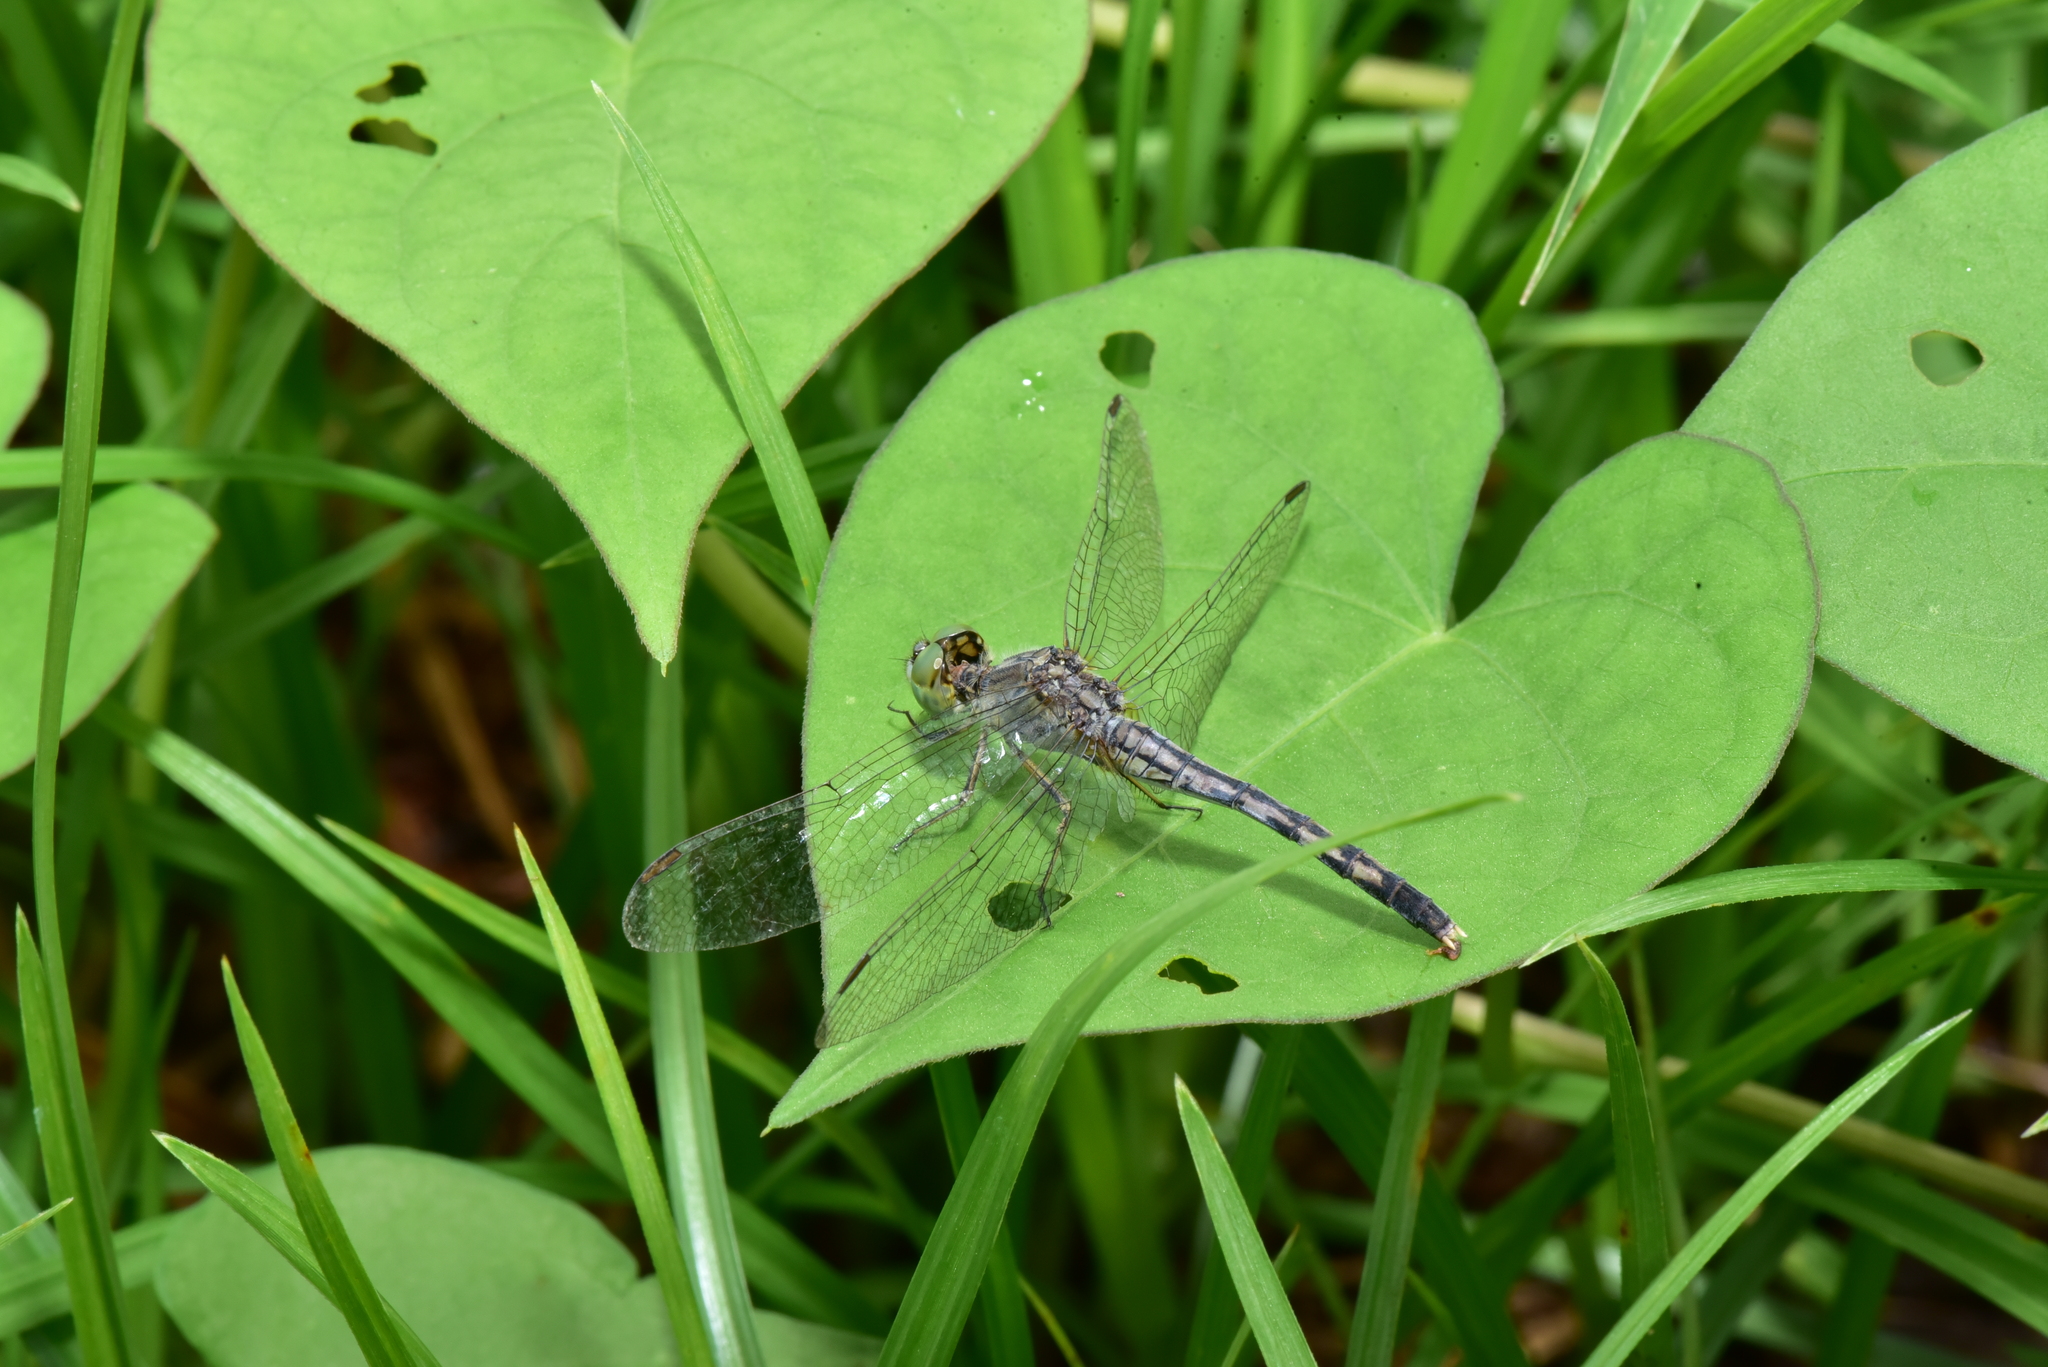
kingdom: Animalia
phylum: Arthropoda
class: Insecta
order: Odonata
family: Libellulidae
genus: Diplacodes
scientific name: Diplacodes trivialis
